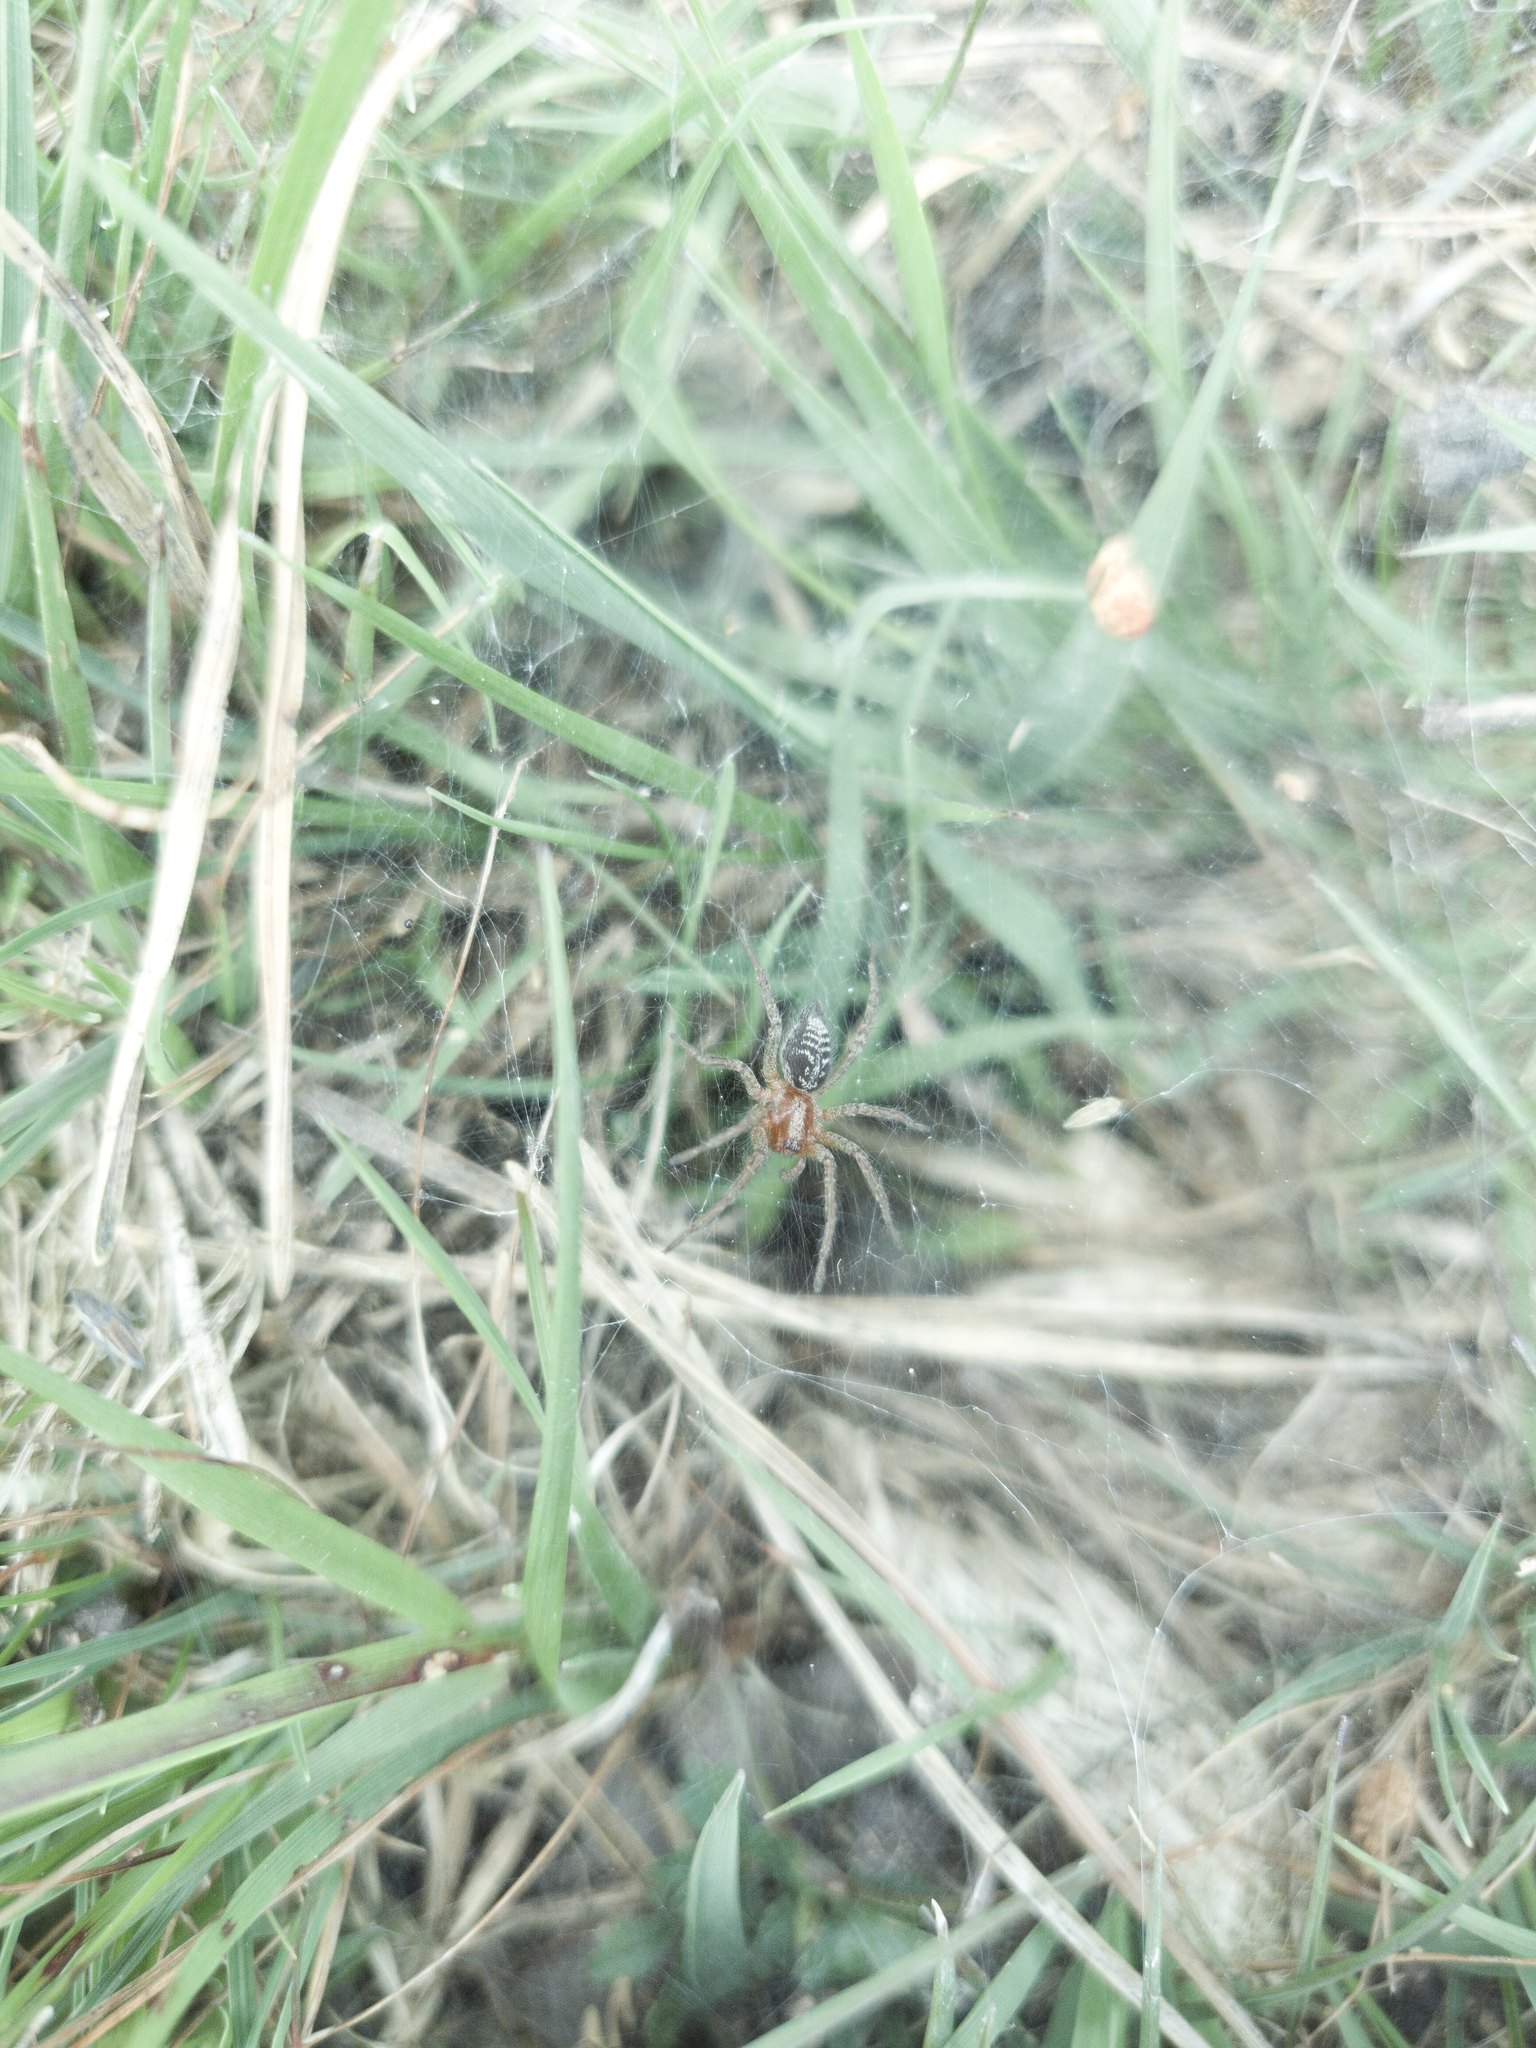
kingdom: Animalia
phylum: Arthropoda
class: Arachnida
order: Araneae
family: Agelenidae
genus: Agelena
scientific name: Agelena labyrinthica
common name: Labyrinth spider
